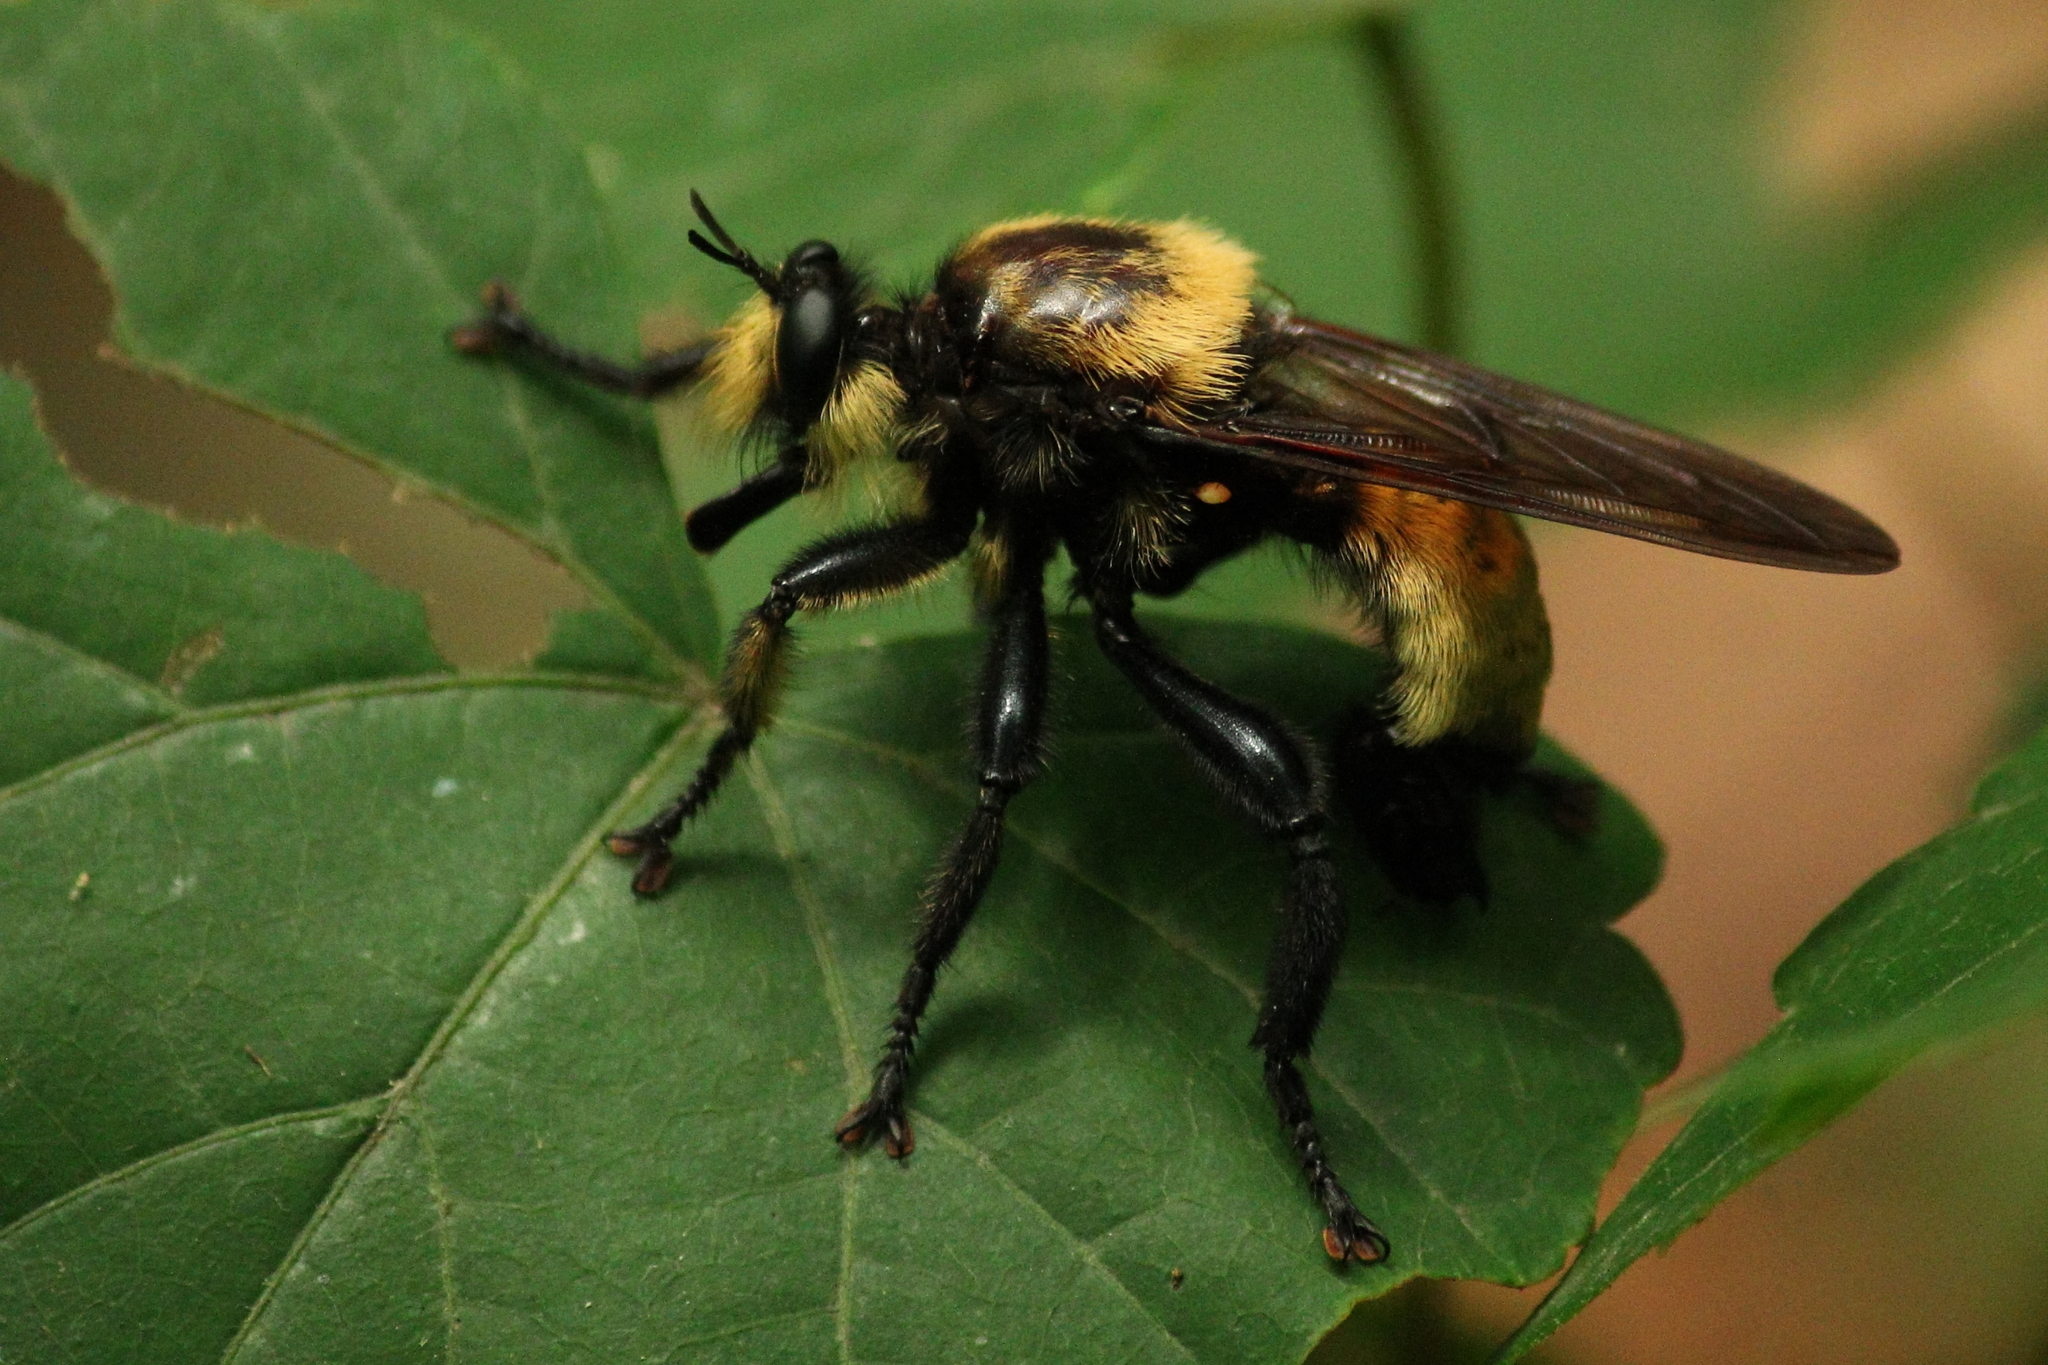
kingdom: Animalia
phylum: Arthropoda
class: Insecta
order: Diptera
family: Asilidae
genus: Laphria
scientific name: Laphria lata
